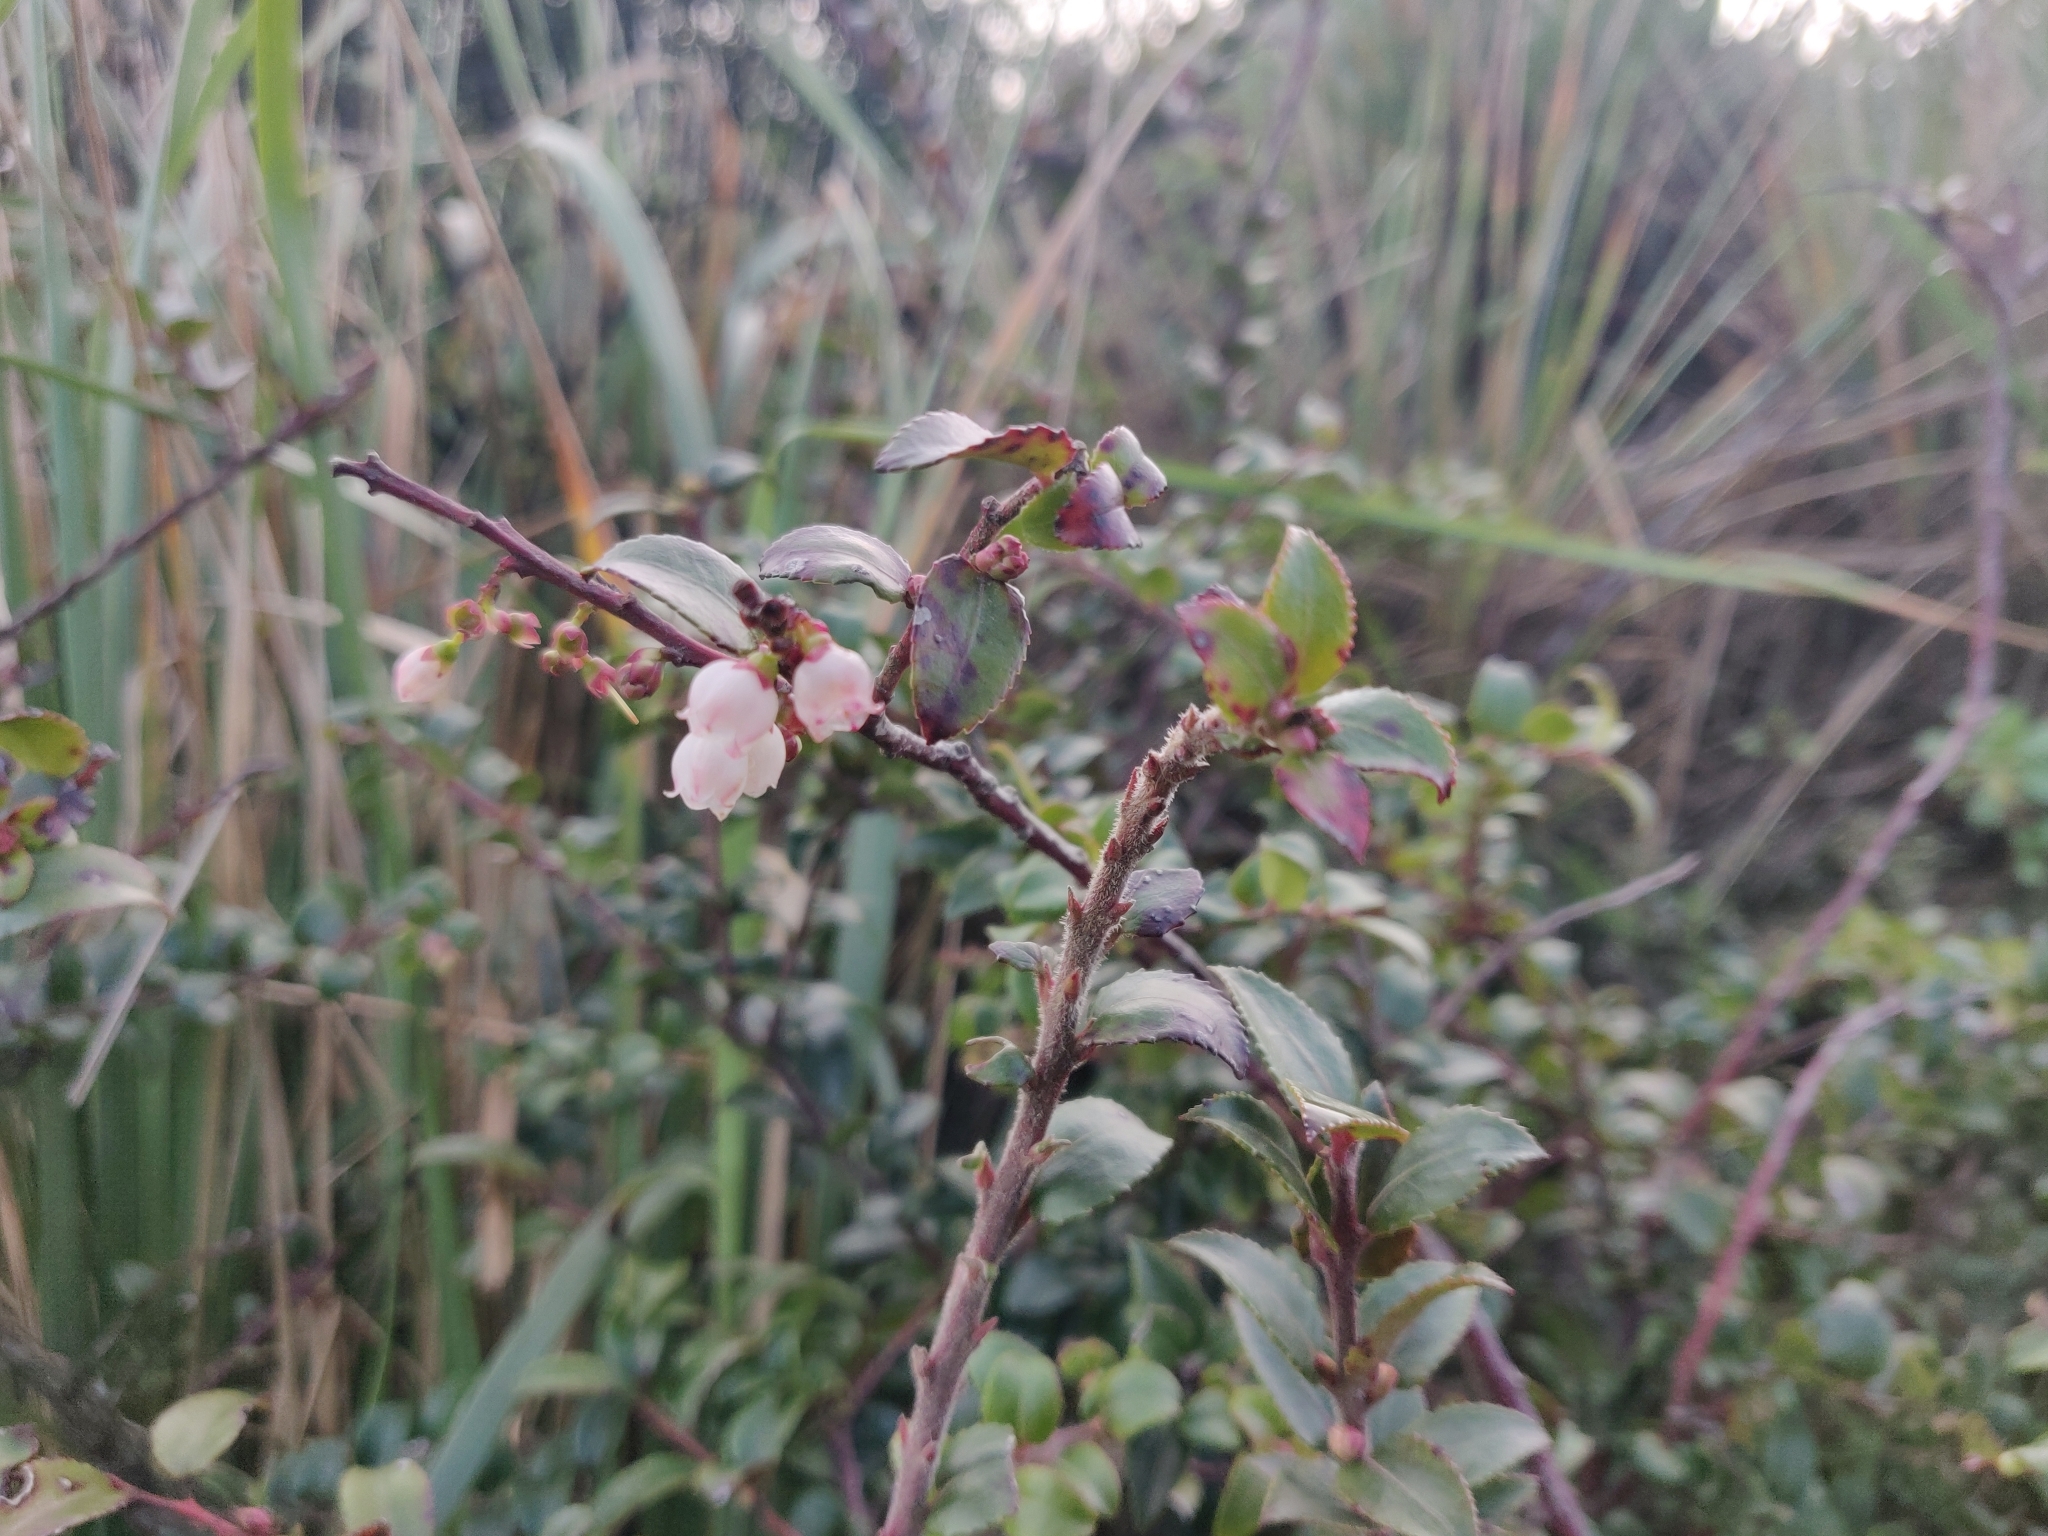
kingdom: Plantae
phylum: Tracheophyta
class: Magnoliopsida
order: Ericales
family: Ericaceae
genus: Vaccinium
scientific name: Vaccinium ovatum
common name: California-huckleberry
